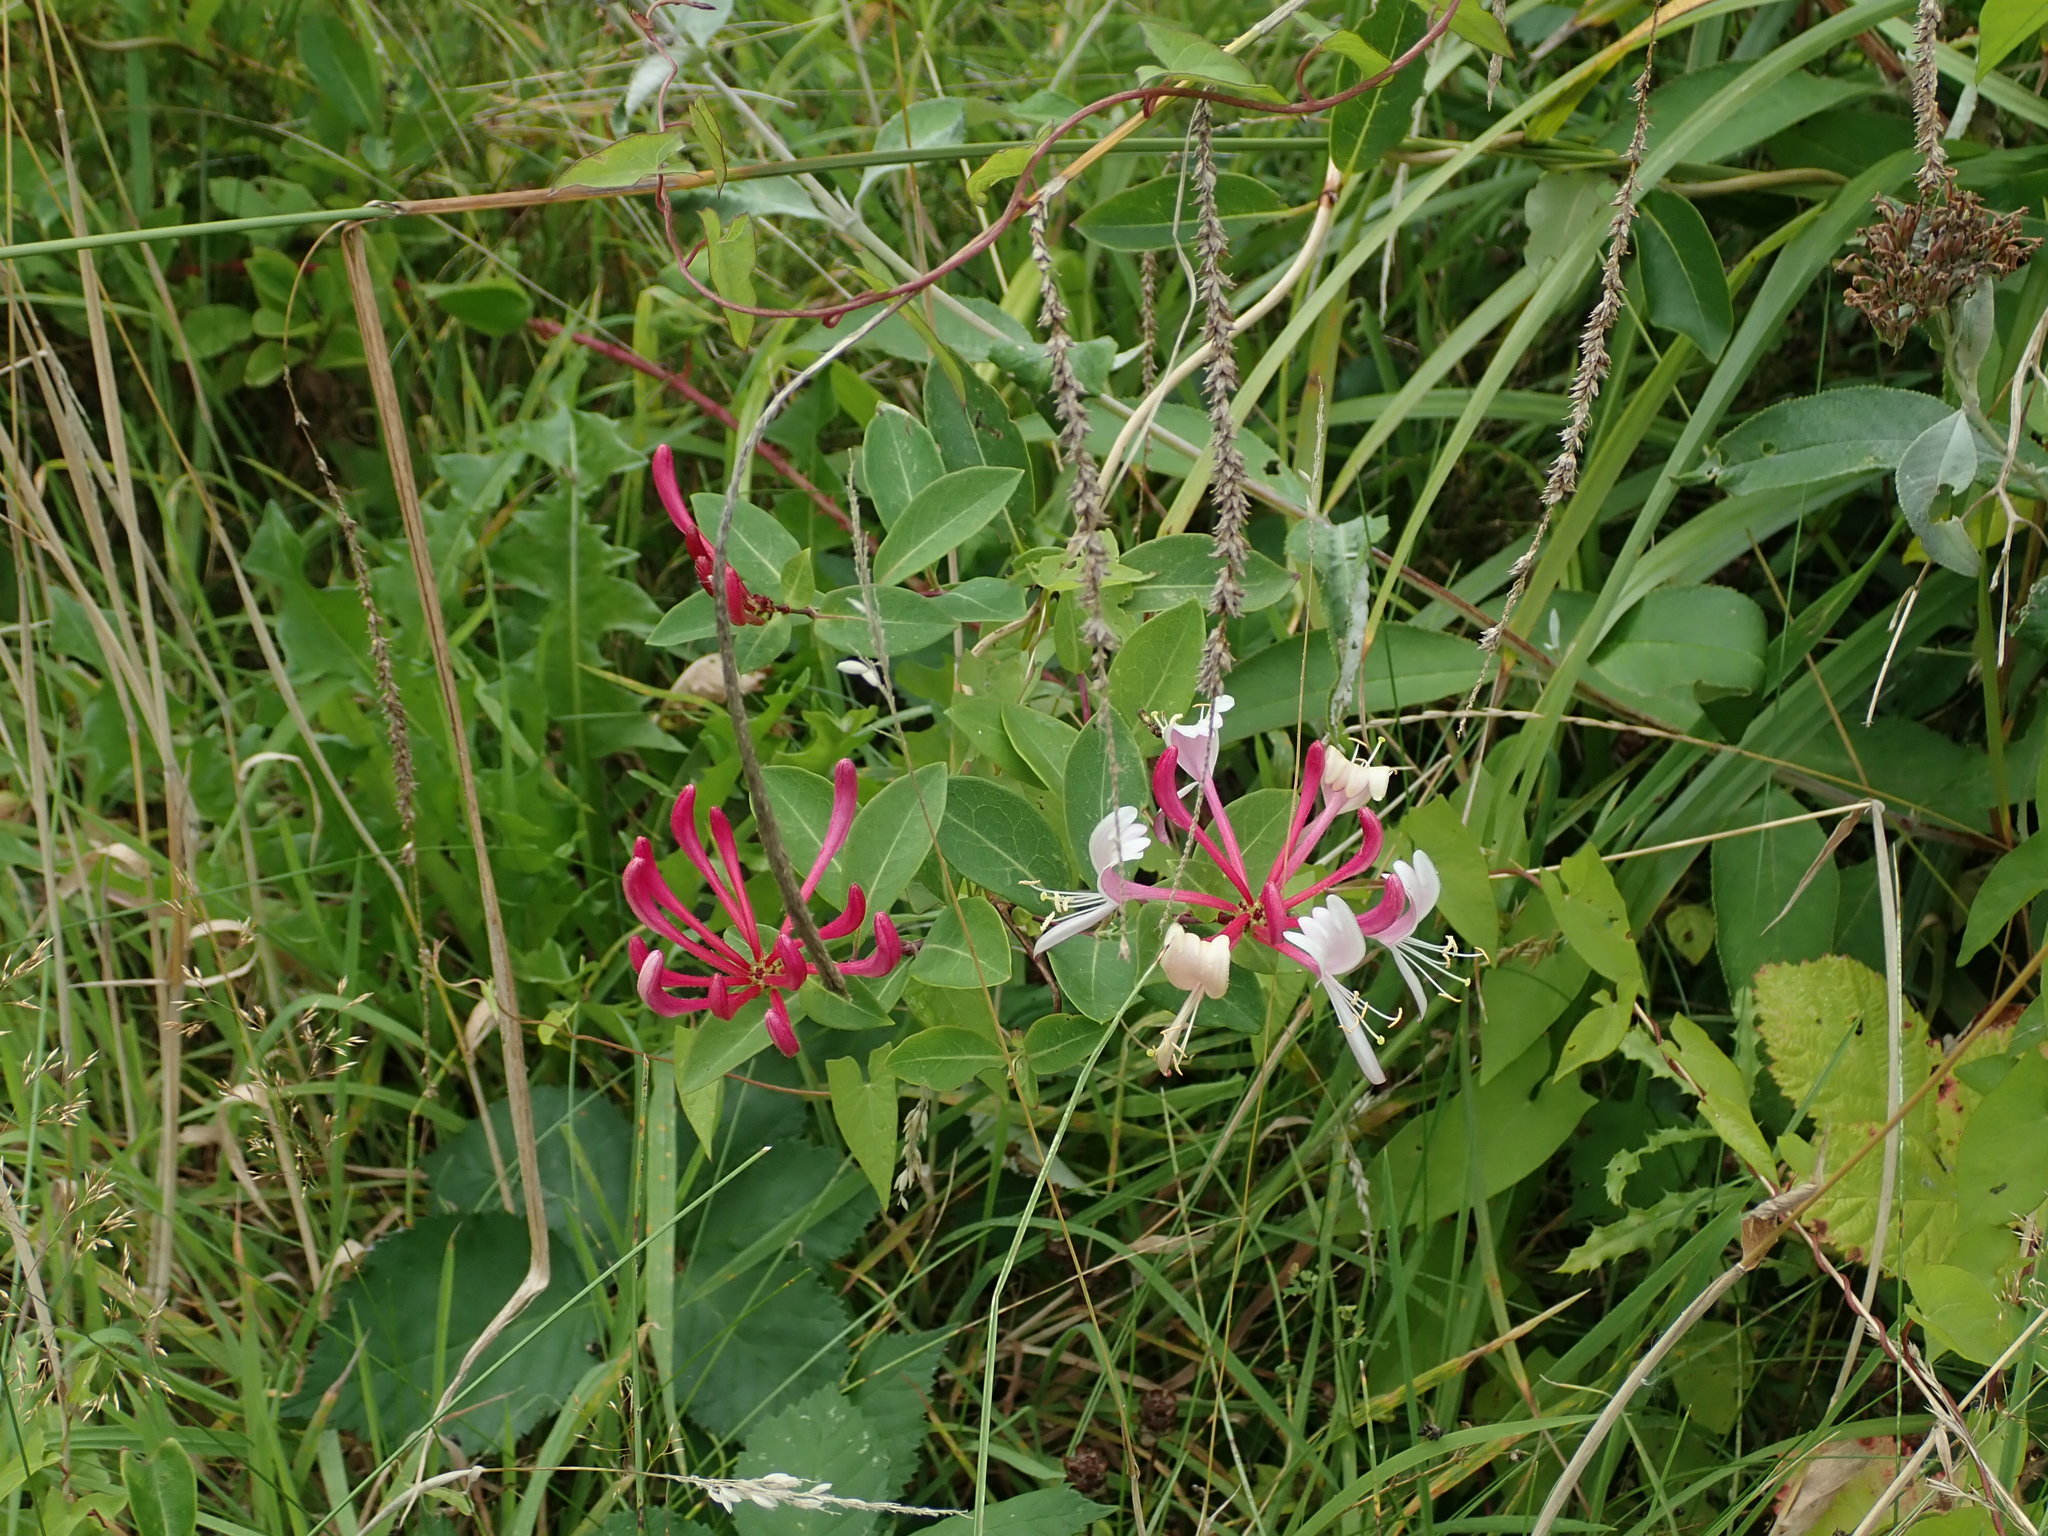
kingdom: Plantae
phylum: Tracheophyta
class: Magnoliopsida
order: Dipsacales
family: Caprifoliaceae
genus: Lonicera
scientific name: Lonicera periclymenum
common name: European honeysuckle
